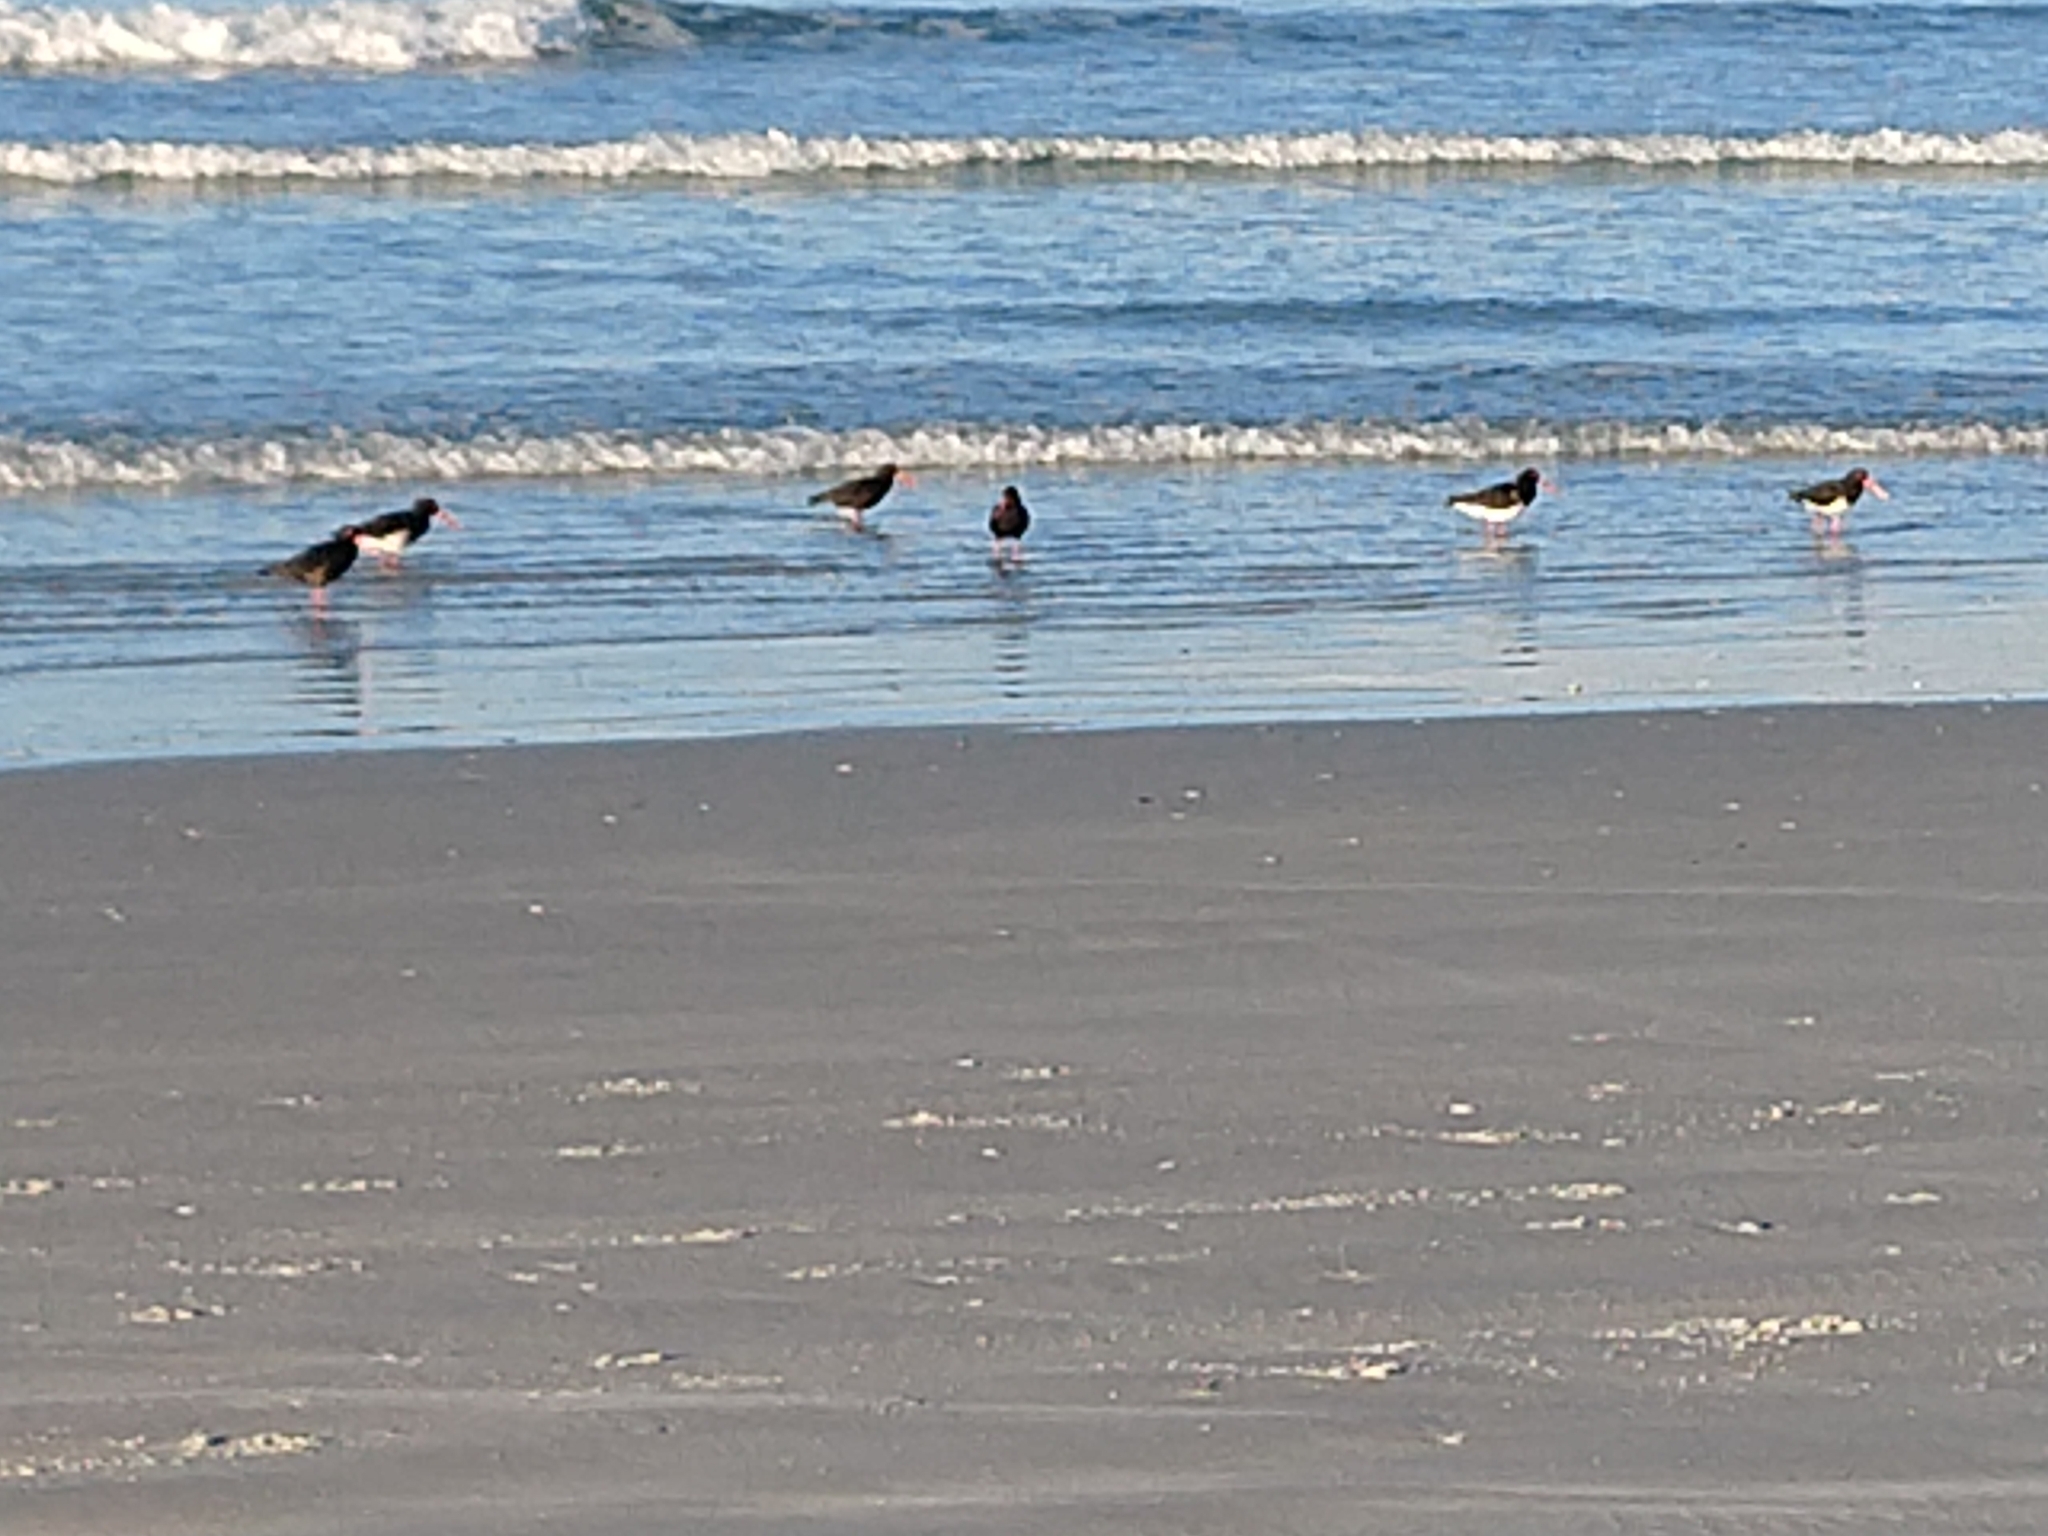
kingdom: Animalia
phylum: Chordata
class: Aves
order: Charadriiformes
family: Haematopodidae
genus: Haematopus
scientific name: Haematopus unicolor
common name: Variable oystercatcher
